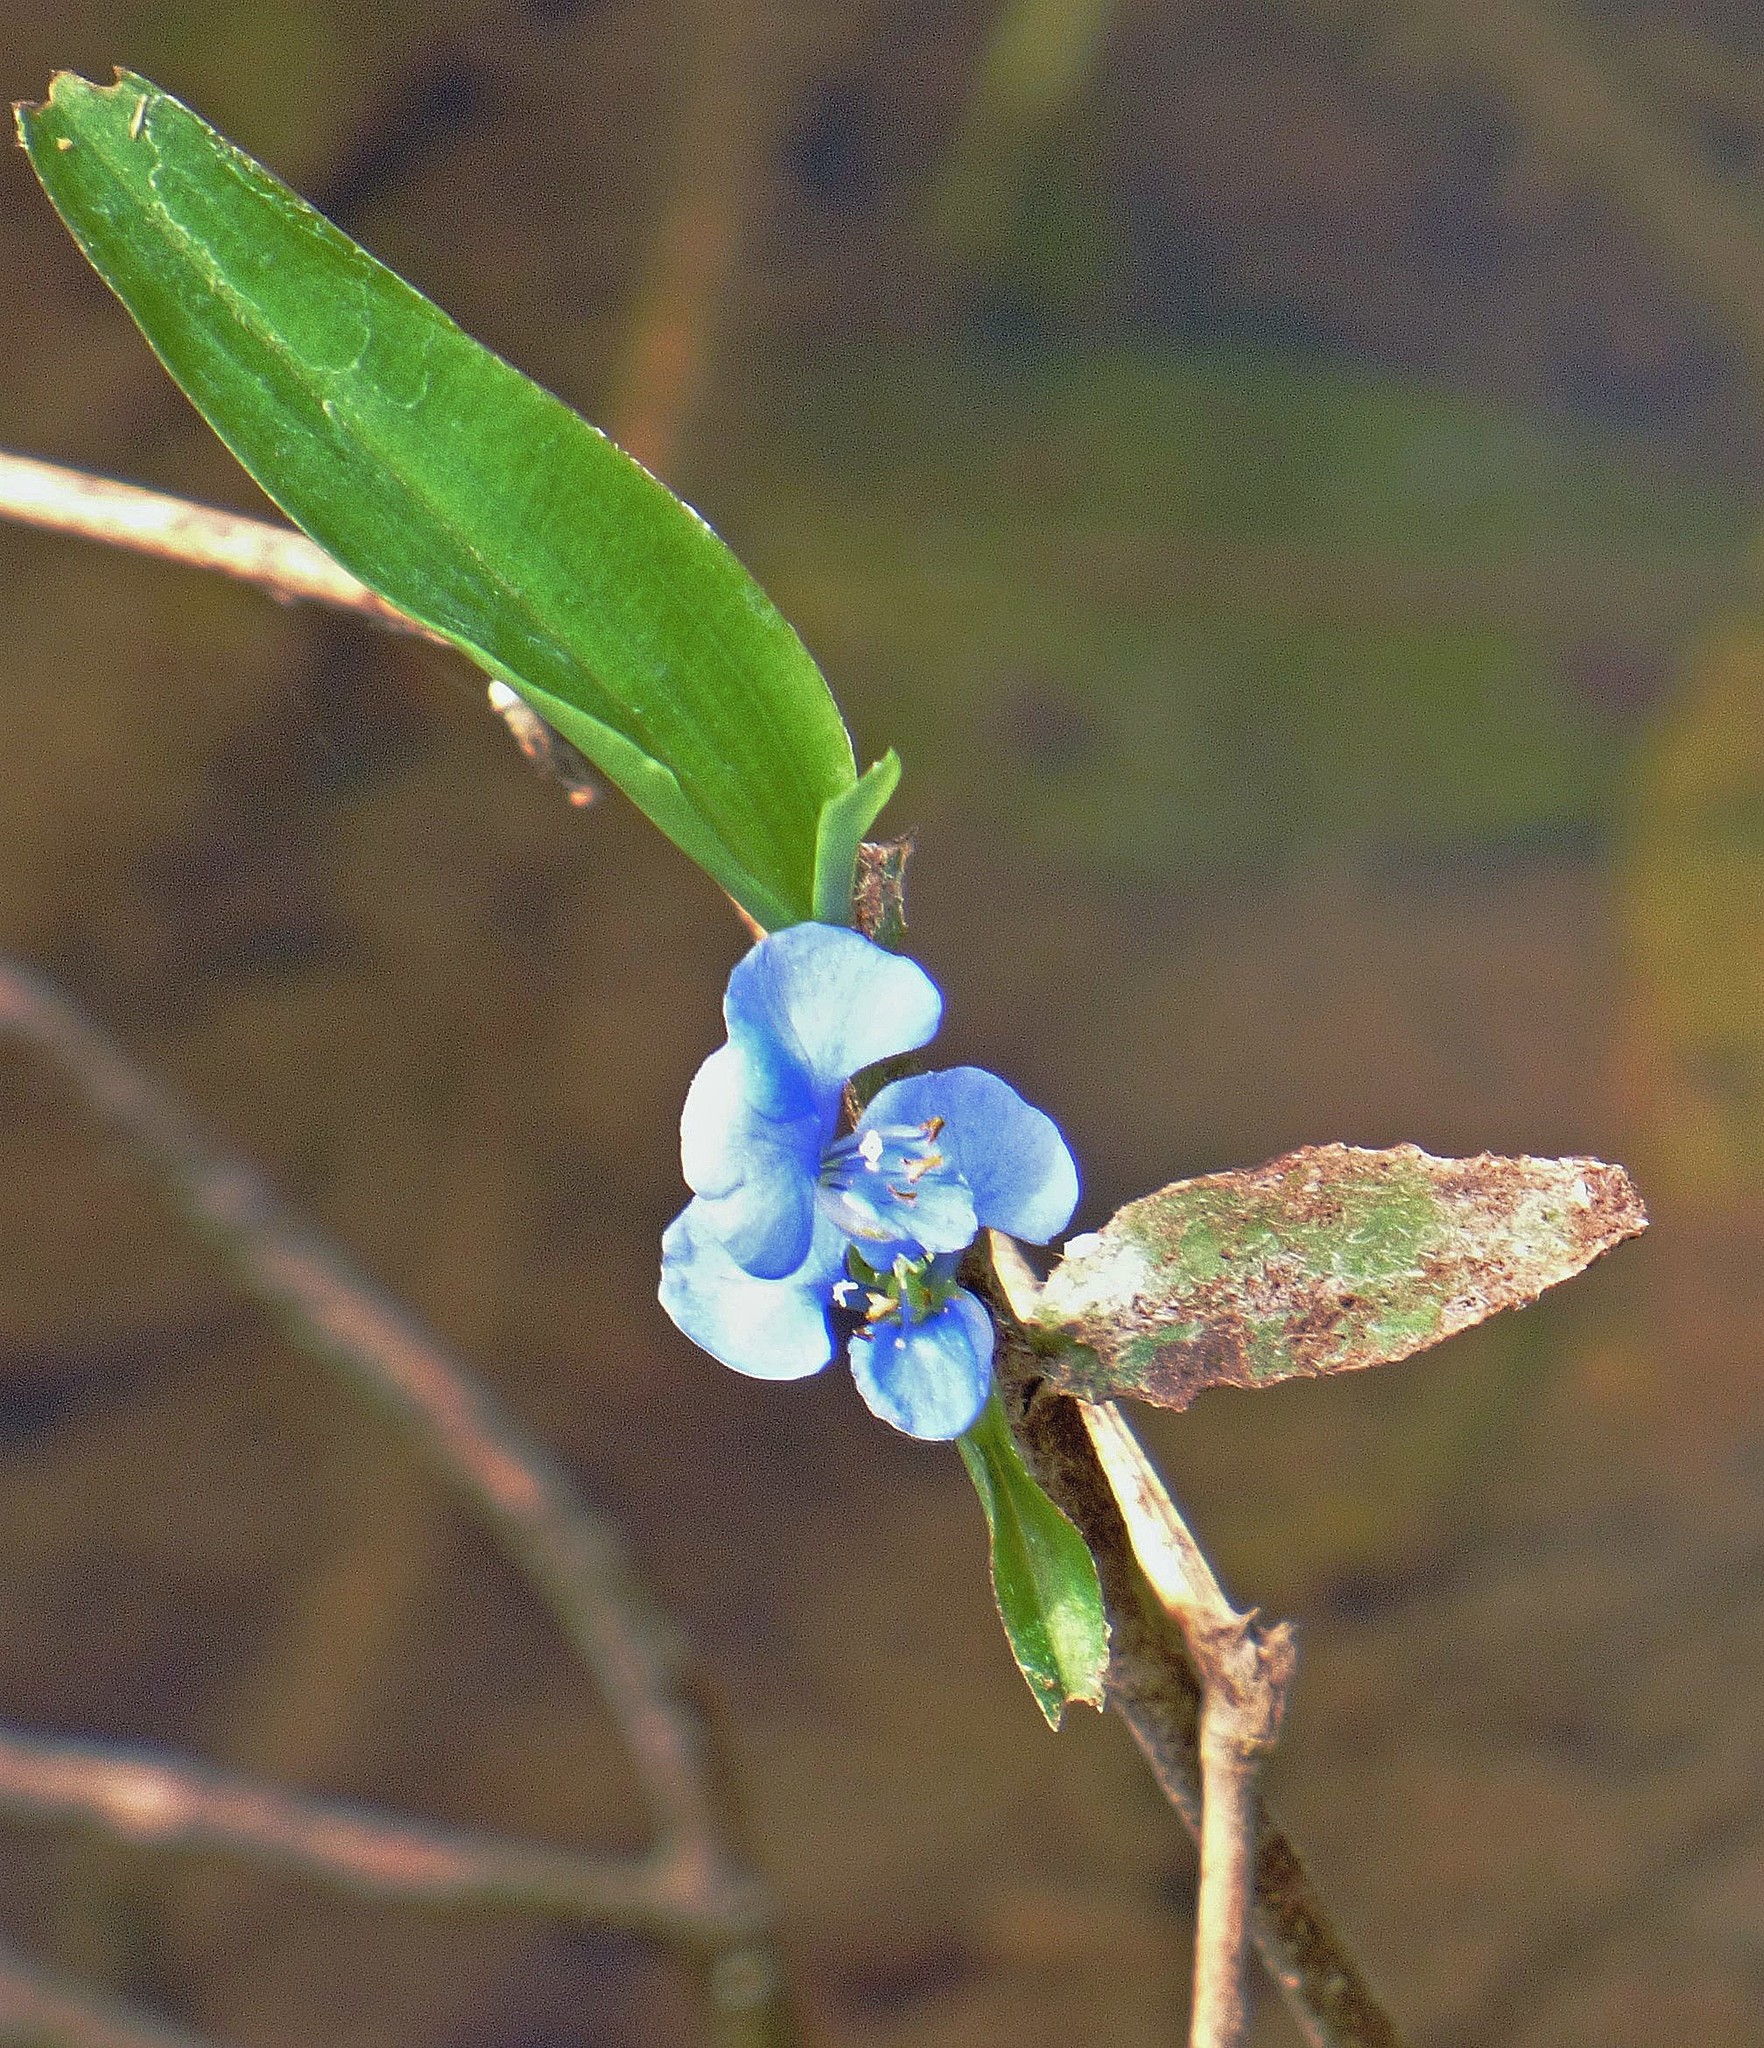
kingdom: Plantae
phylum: Tracheophyta
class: Liliopsida
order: Commelinales
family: Commelinaceae
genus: Commelina
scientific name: Commelina diffusa
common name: Climbing dayflower
